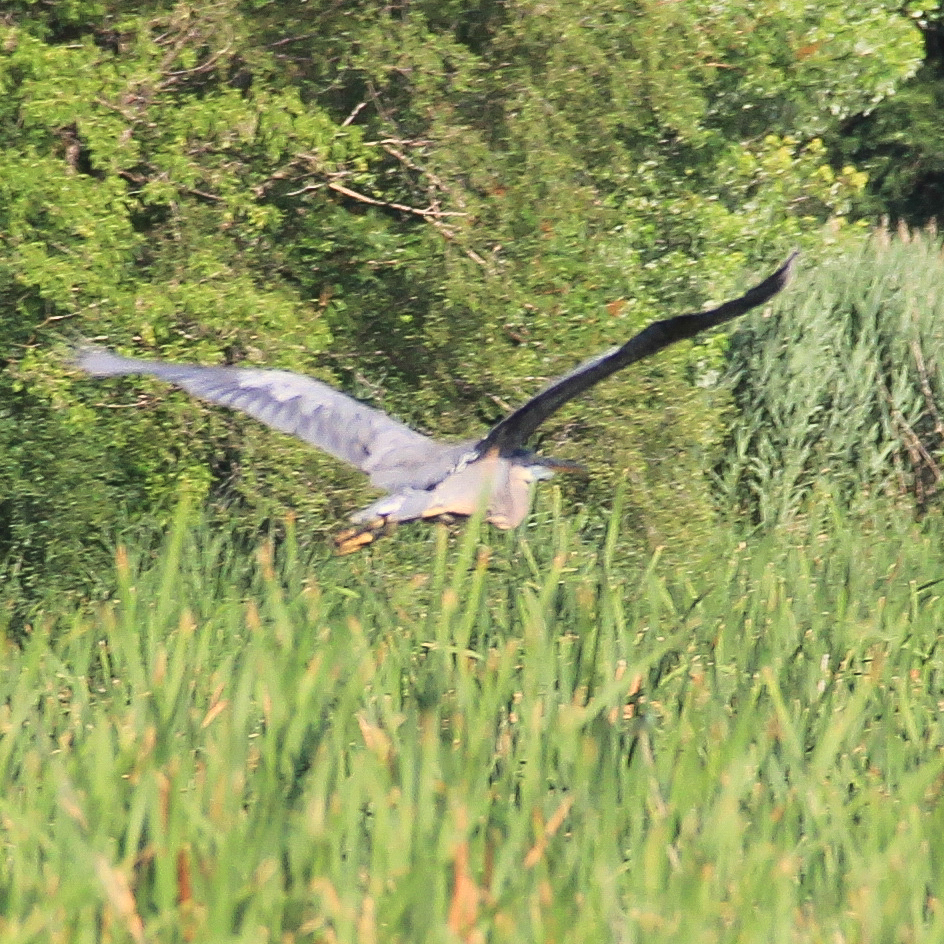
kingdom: Animalia
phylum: Chordata
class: Aves
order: Pelecaniformes
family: Ardeidae
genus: Ardea
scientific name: Ardea herodias
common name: Great blue heron
